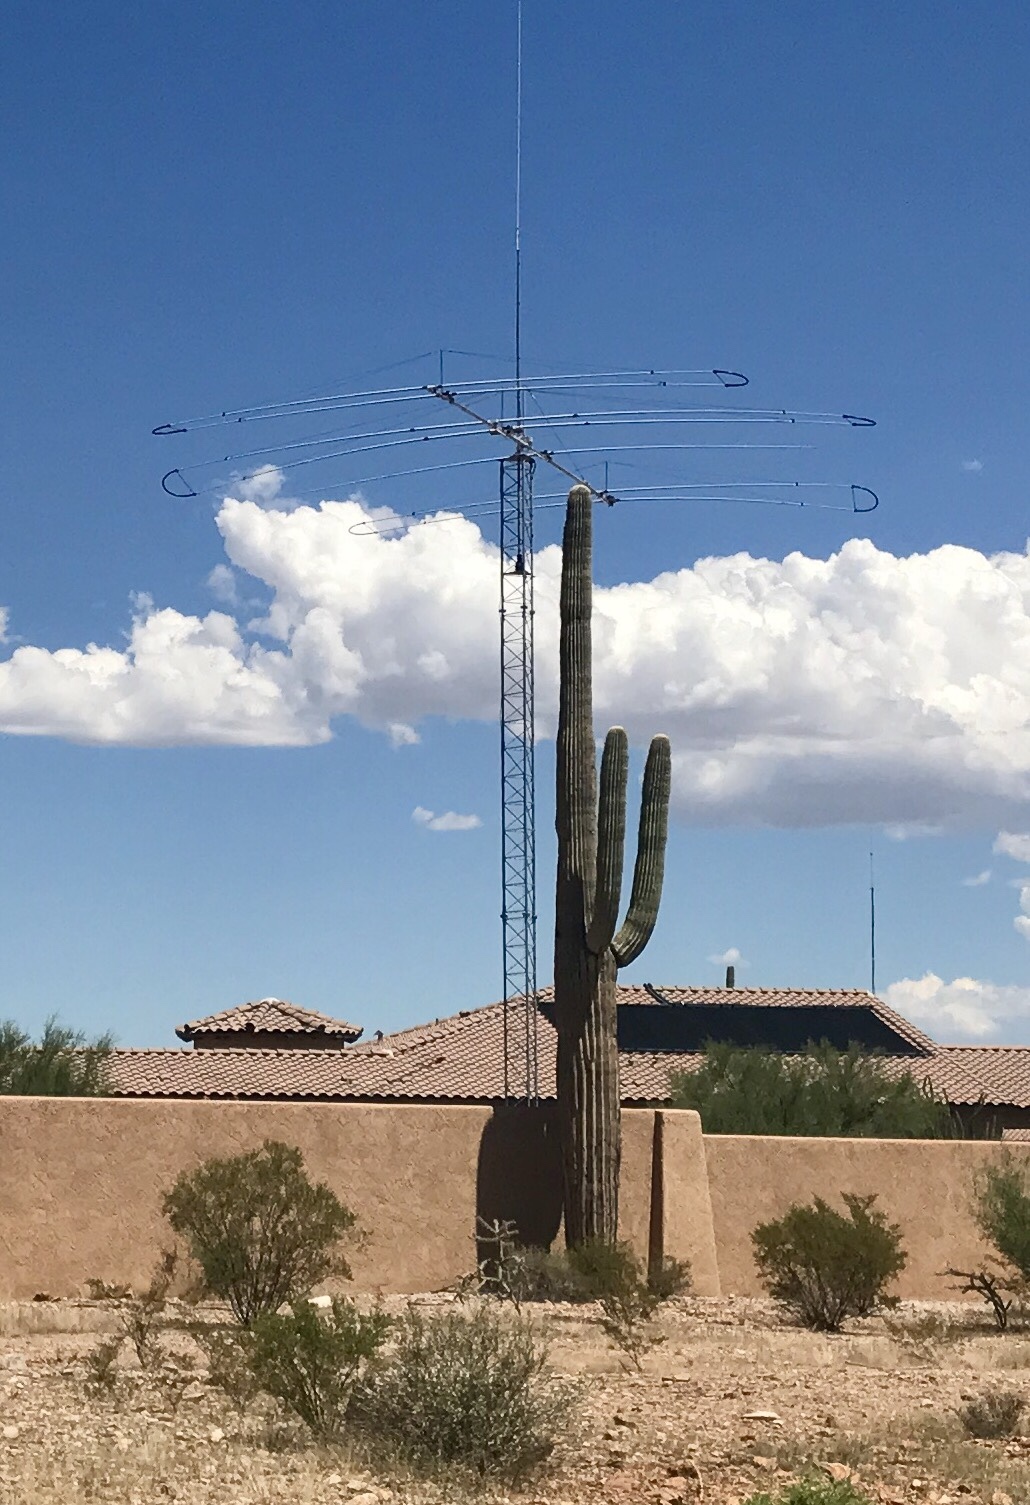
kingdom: Plantae
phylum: Tracheophyta
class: Magnoliopsida
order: Caryophyllales
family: Cactaceae
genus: Carnegiea
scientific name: Carnegiea gigantea
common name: Saguaro
